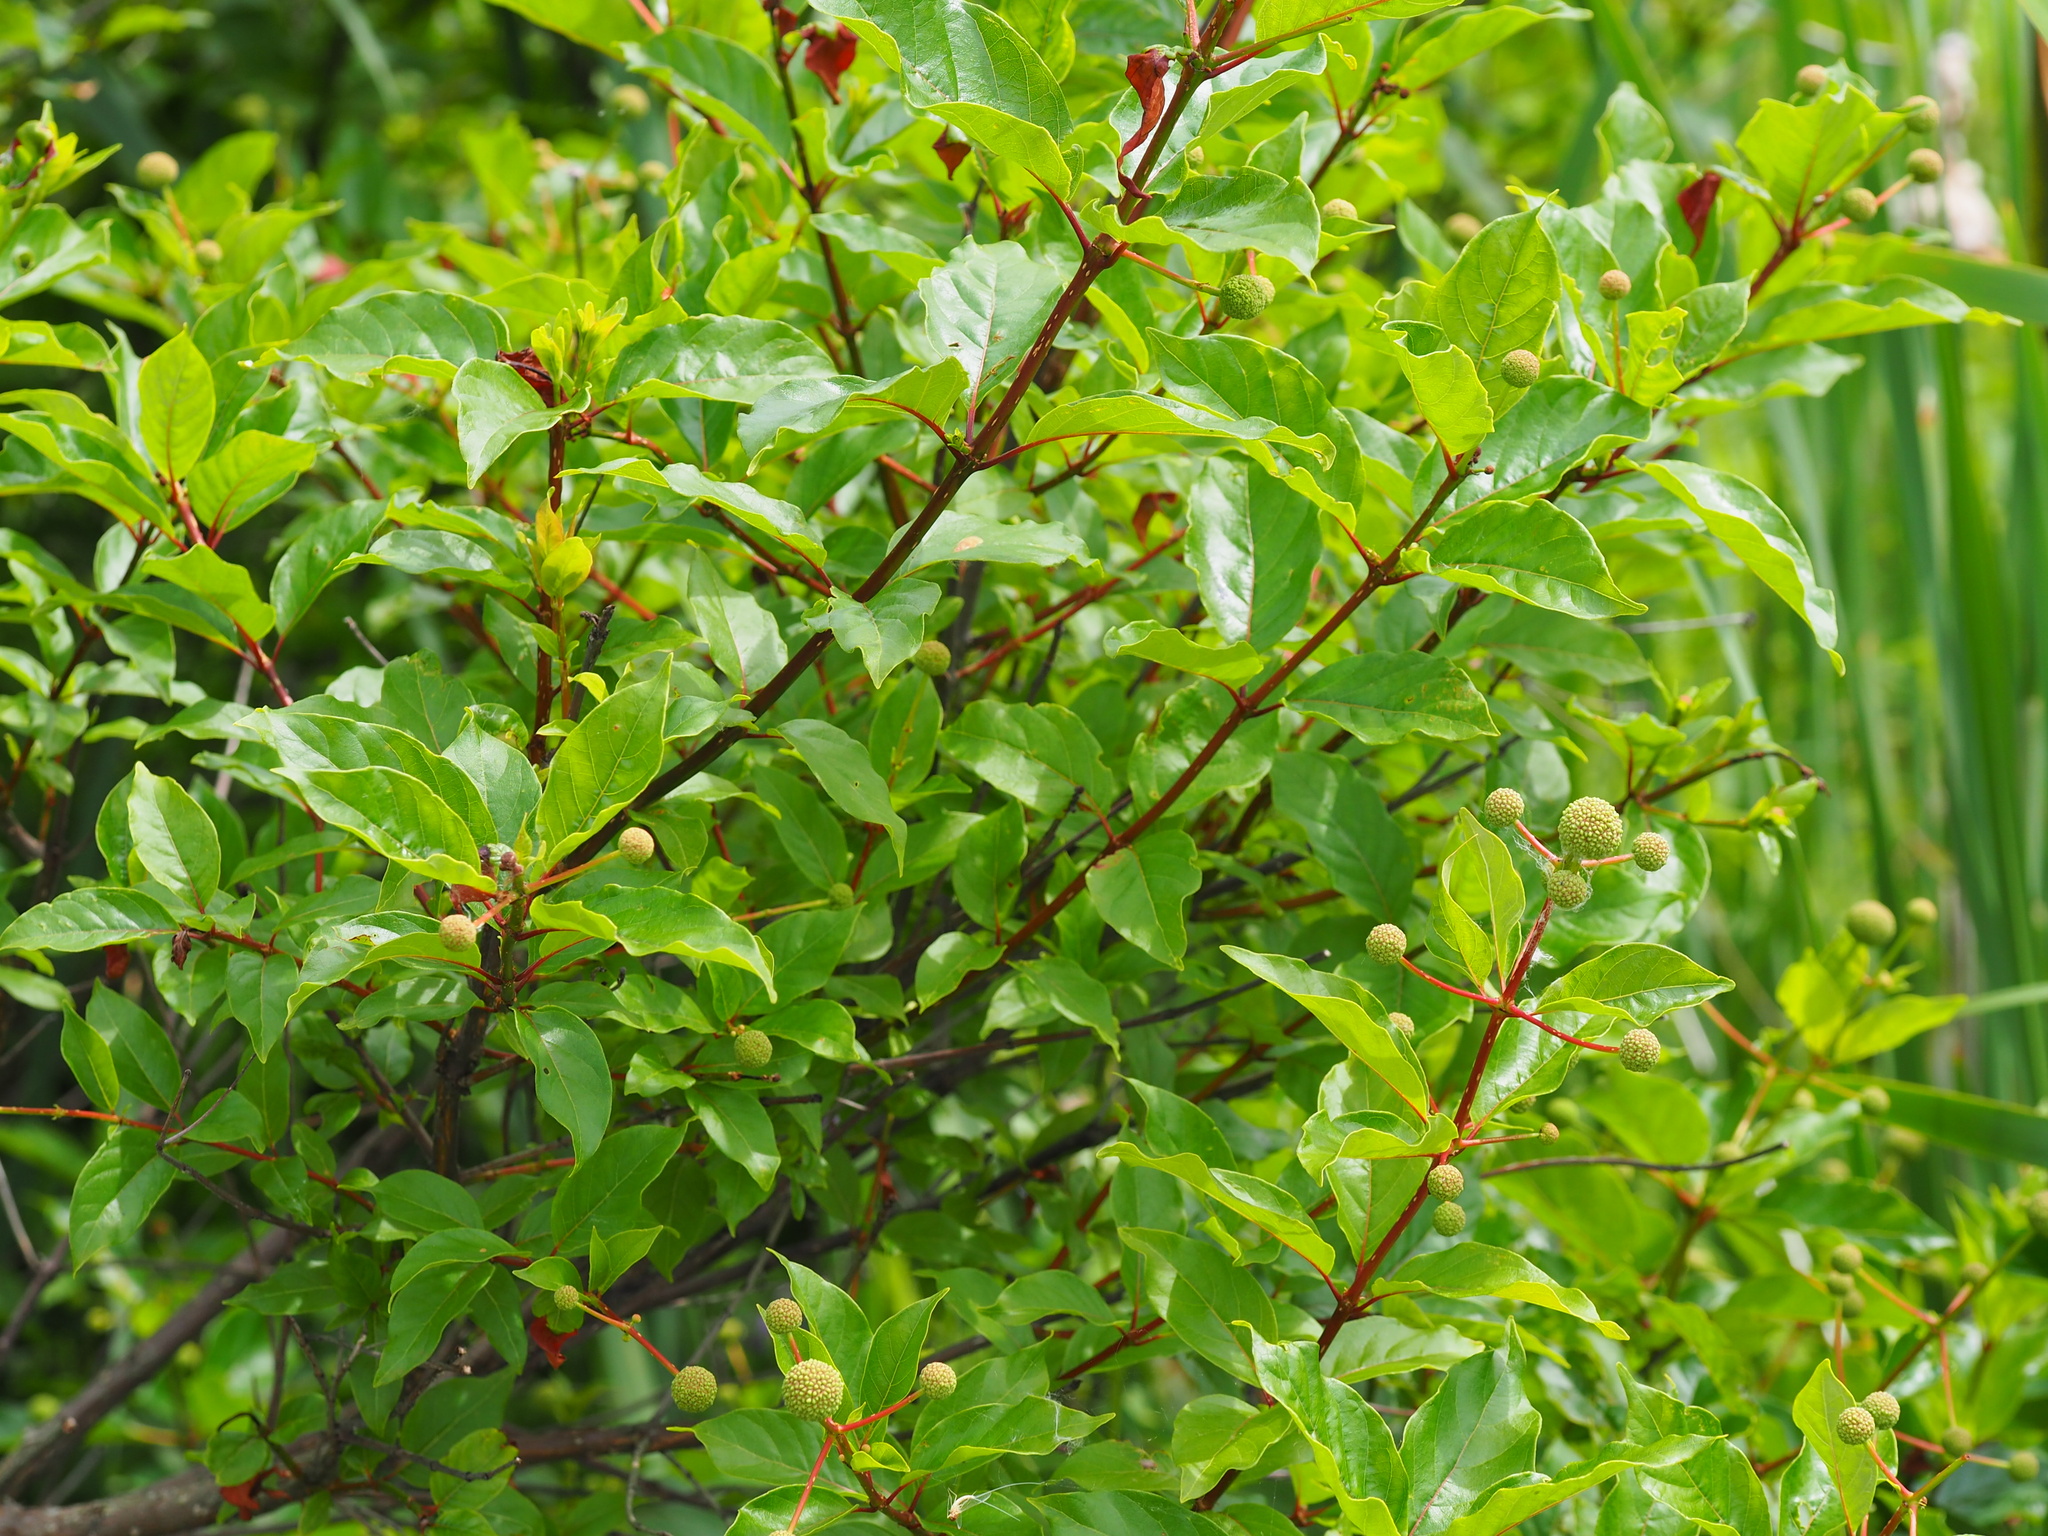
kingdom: Plantae
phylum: Tracheophyta
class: Magnoliopsida
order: Gentianales
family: Rubiaceae
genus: Cephalanthus
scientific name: Cephalanthus occidentalis
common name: Button-willow
